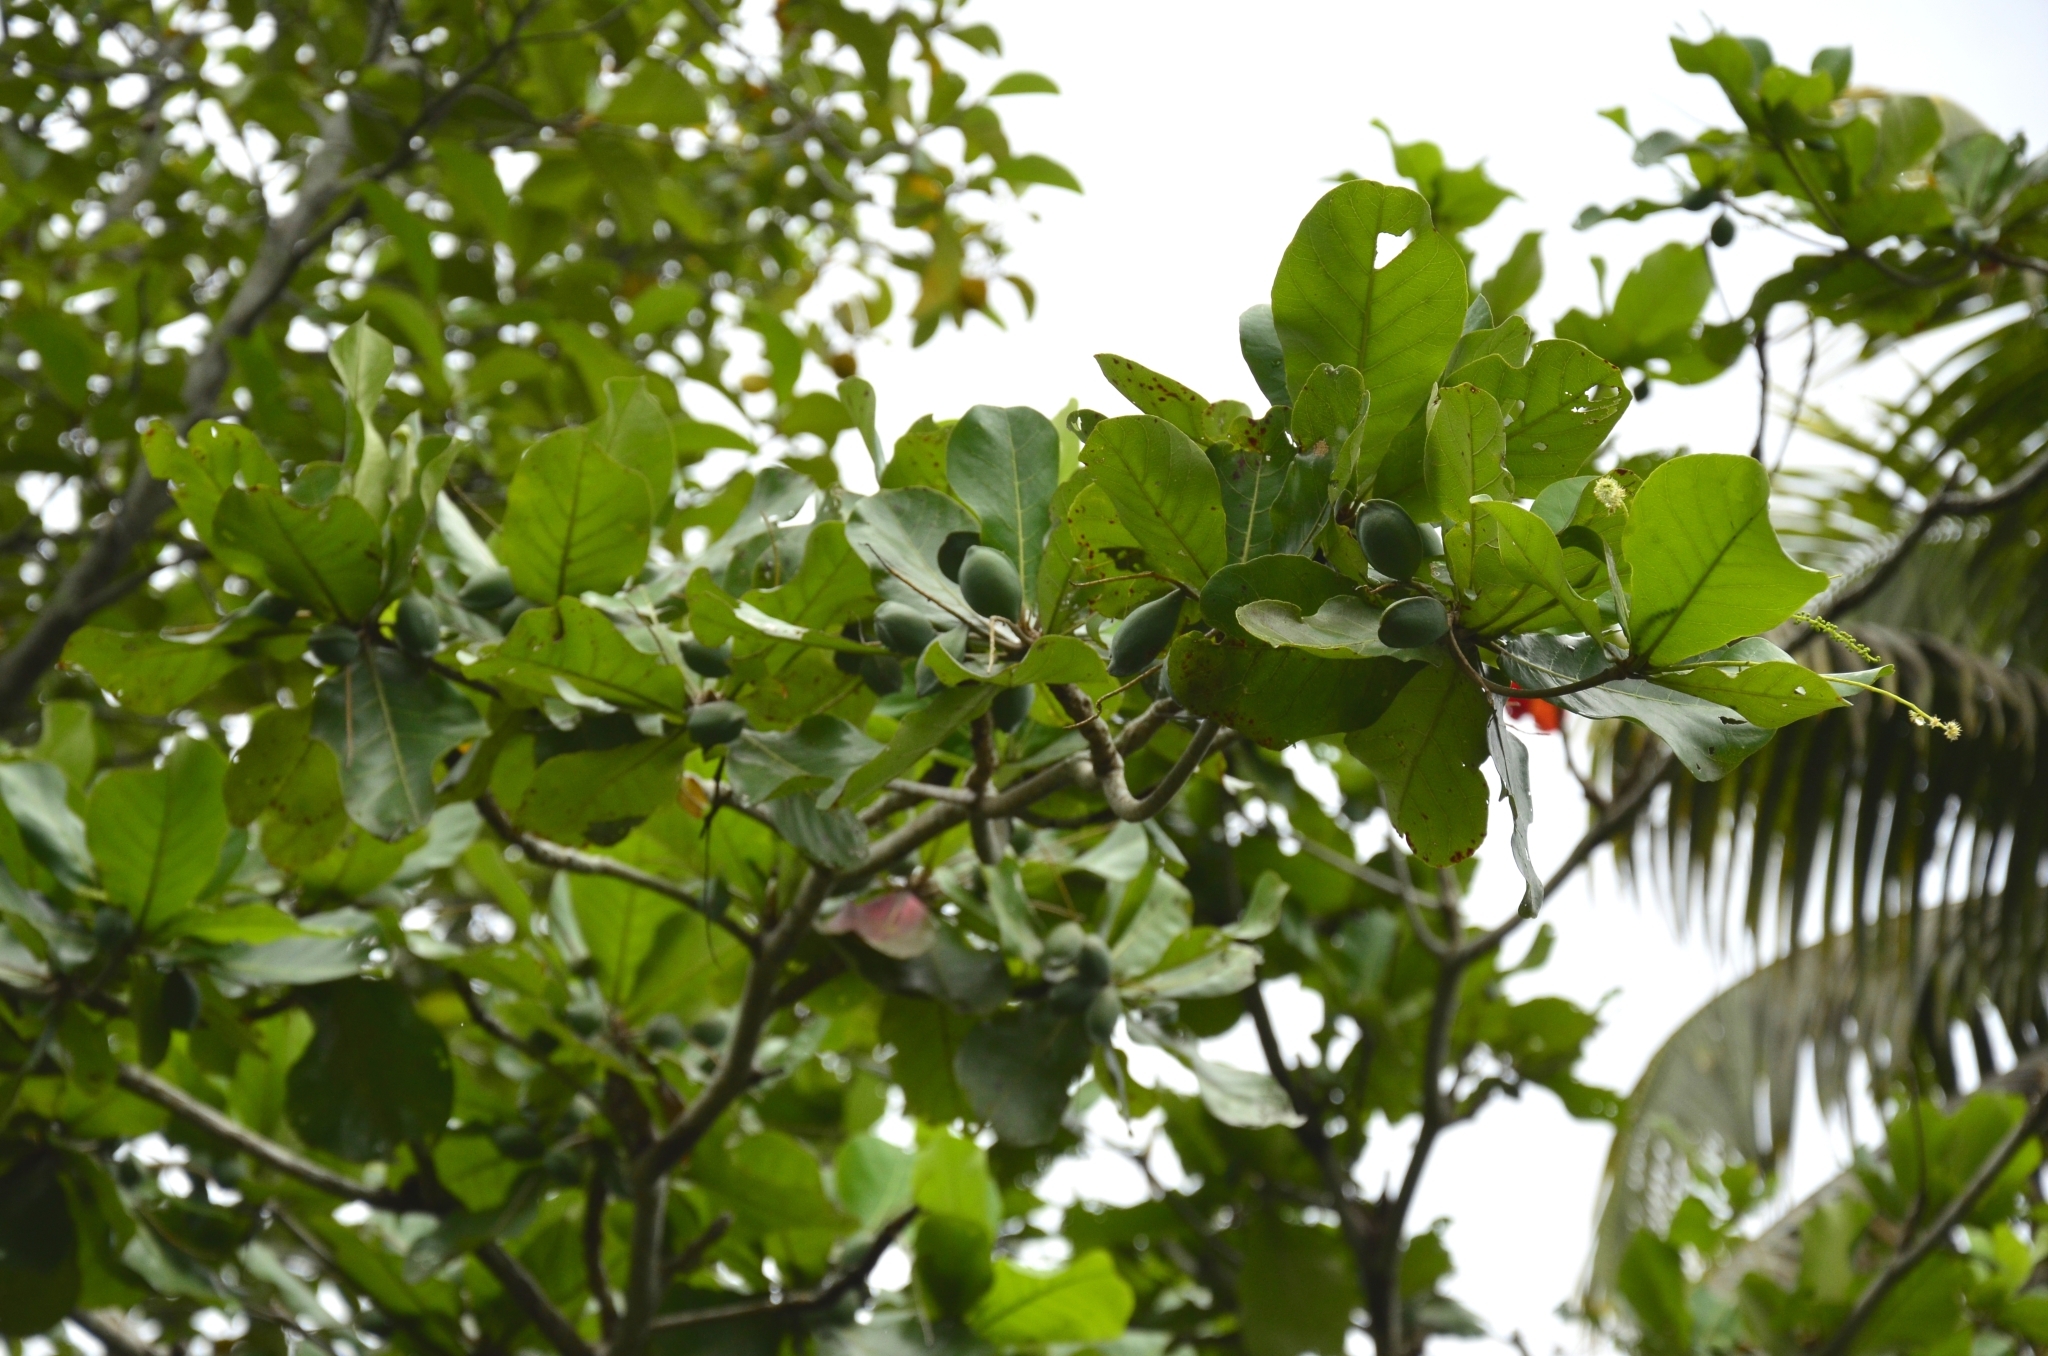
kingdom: Plantae
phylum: Tracheophyta
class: Magnoliopsida
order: Myrtales
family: Combretaceae
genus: Terminalia
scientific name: Terminalia catappa
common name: Tropical almond
